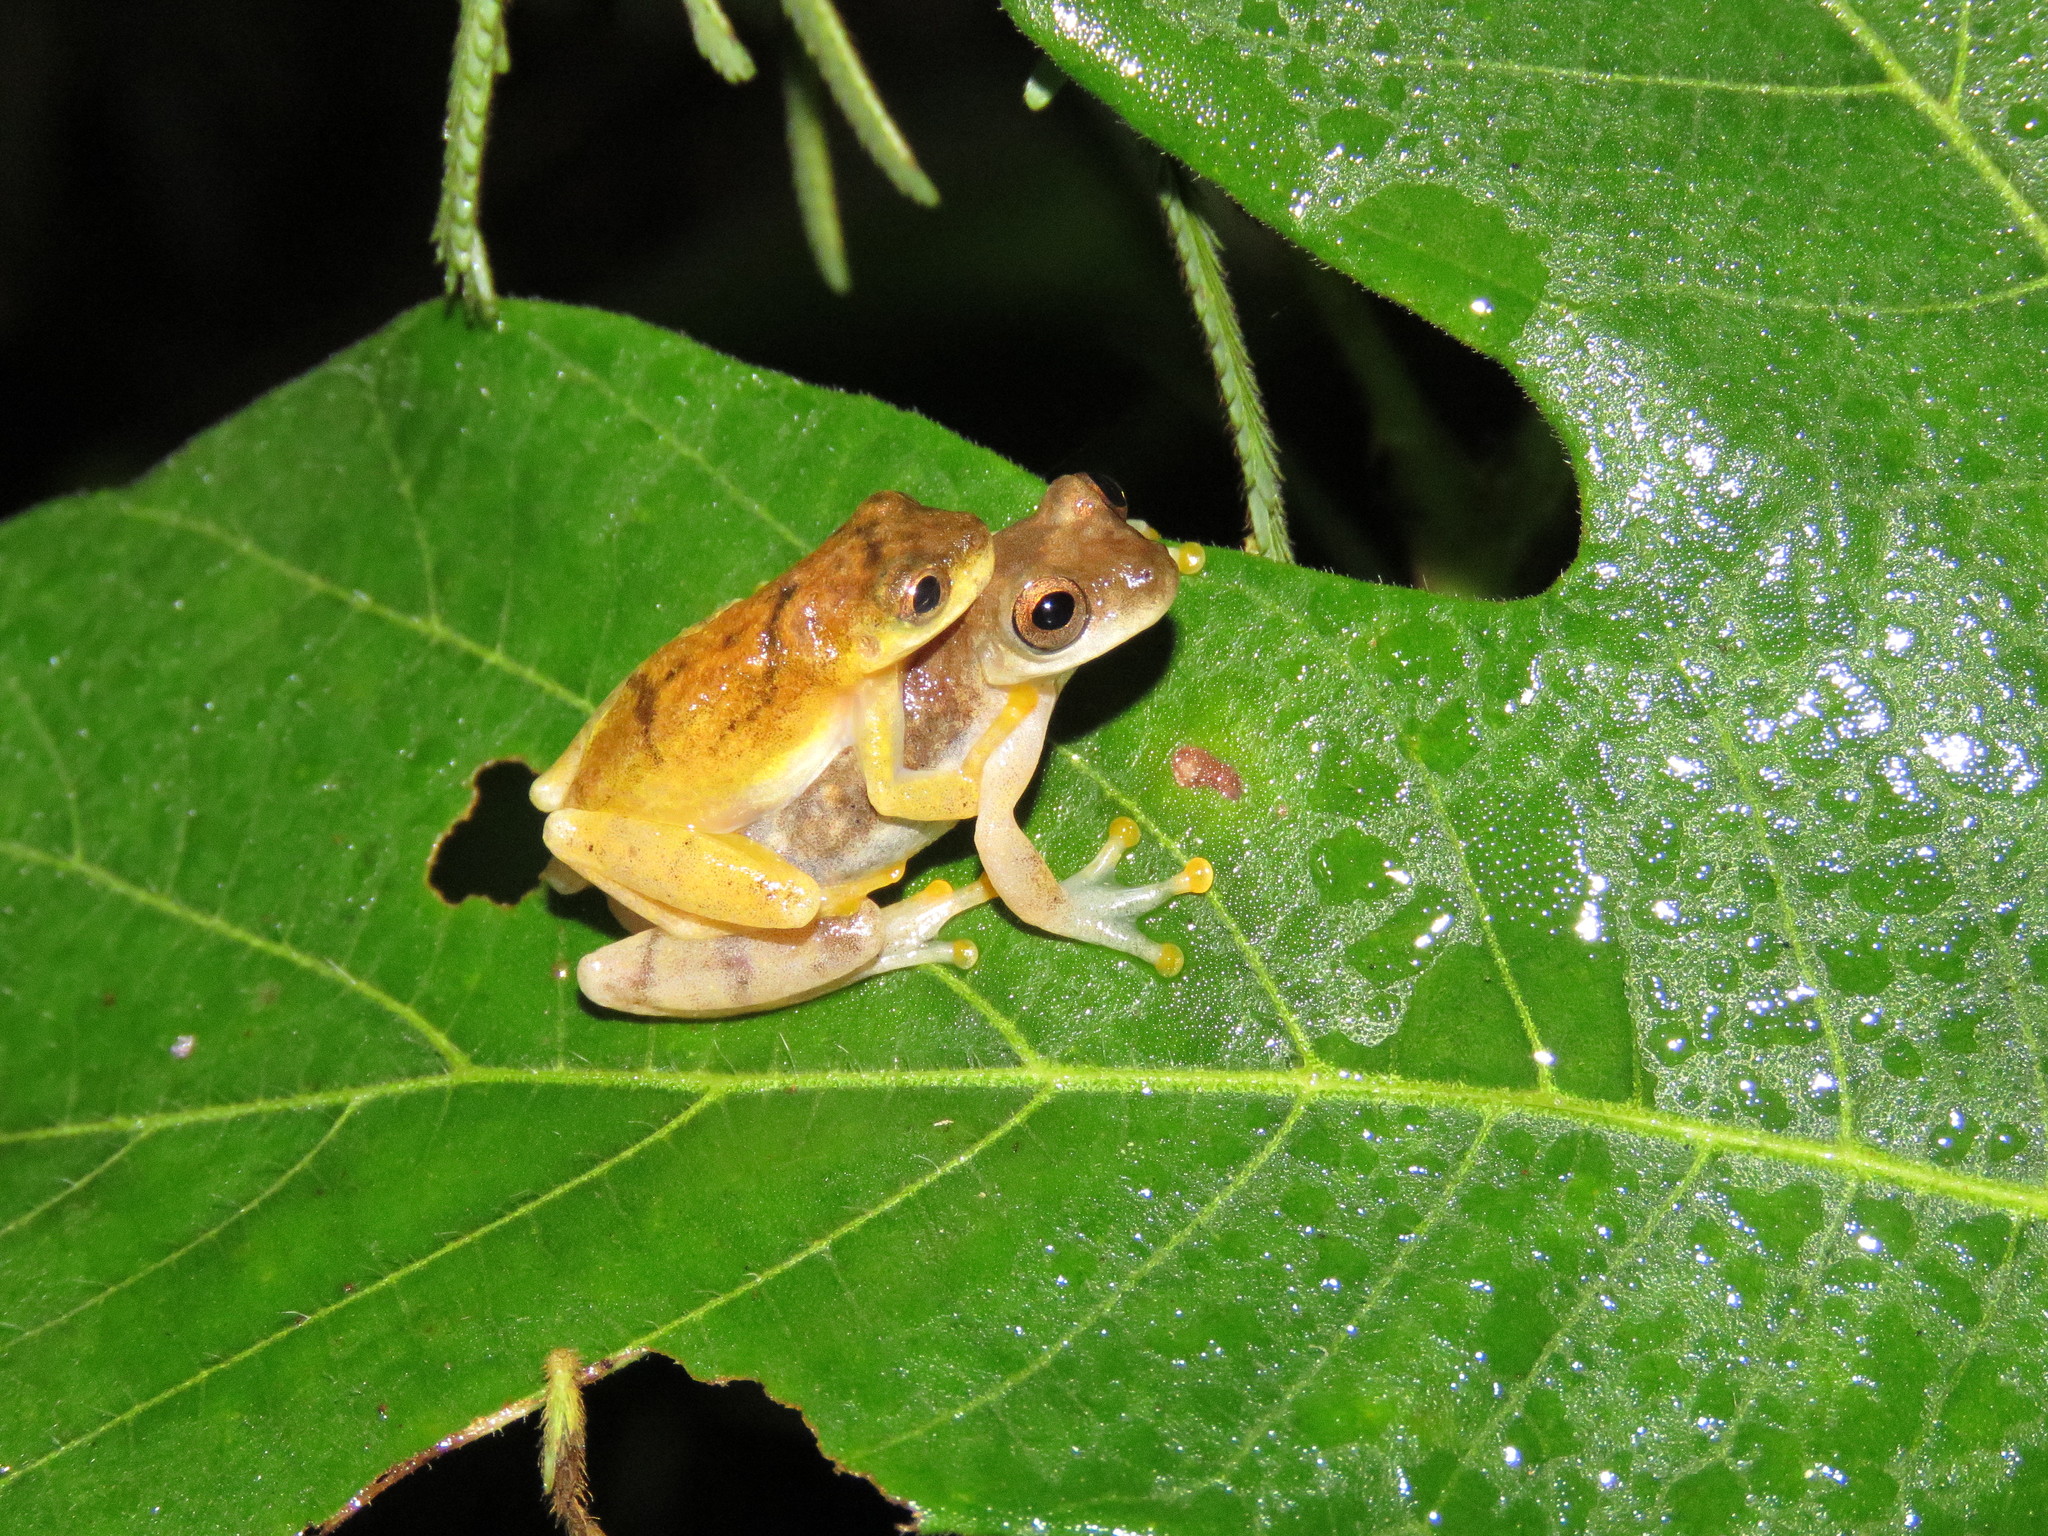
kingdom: Animalia
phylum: Chordata
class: Amphibia
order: Anura
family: Hylidae
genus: Dendropsophus
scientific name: Dendropsophus delarivai
